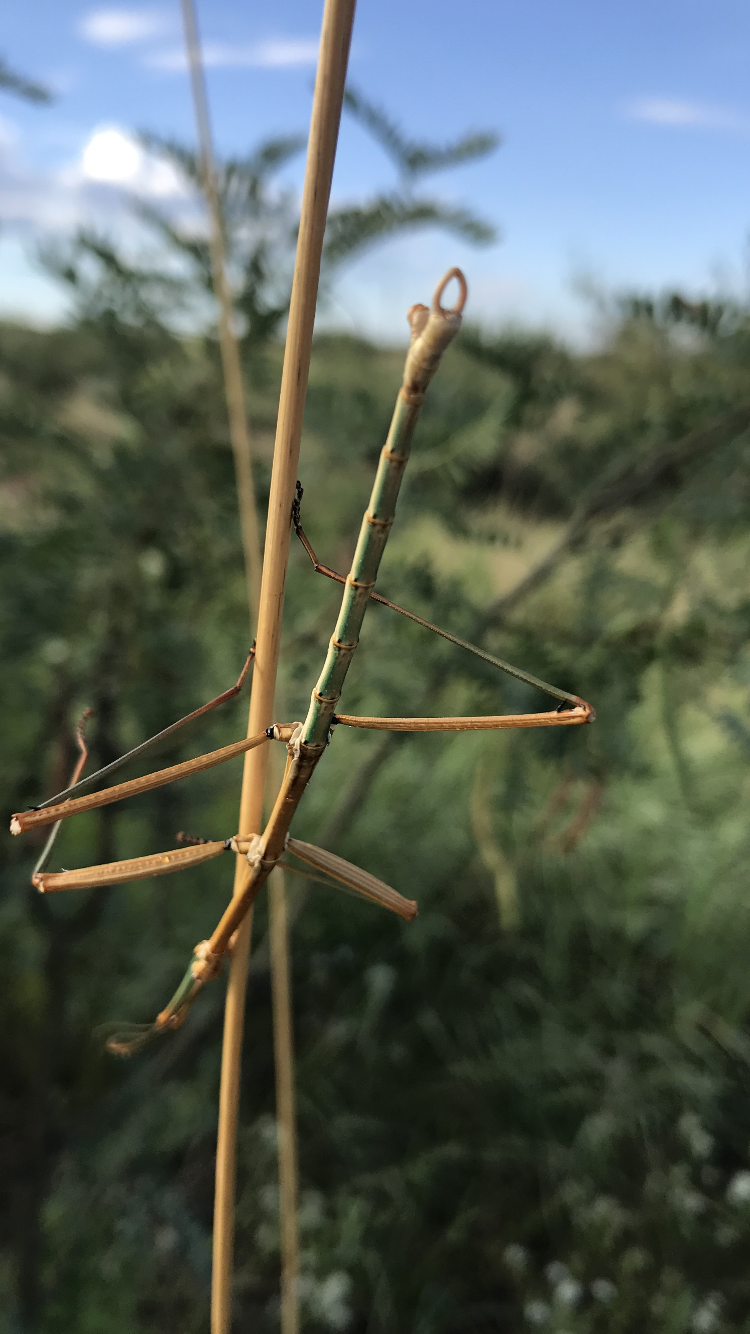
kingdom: Animalia
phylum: Arthropoda
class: Insecta
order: Phasmida
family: Diapheromeridae
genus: Diapheromera
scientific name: Diapheromera arizonensis
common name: Arizona walkingstick
